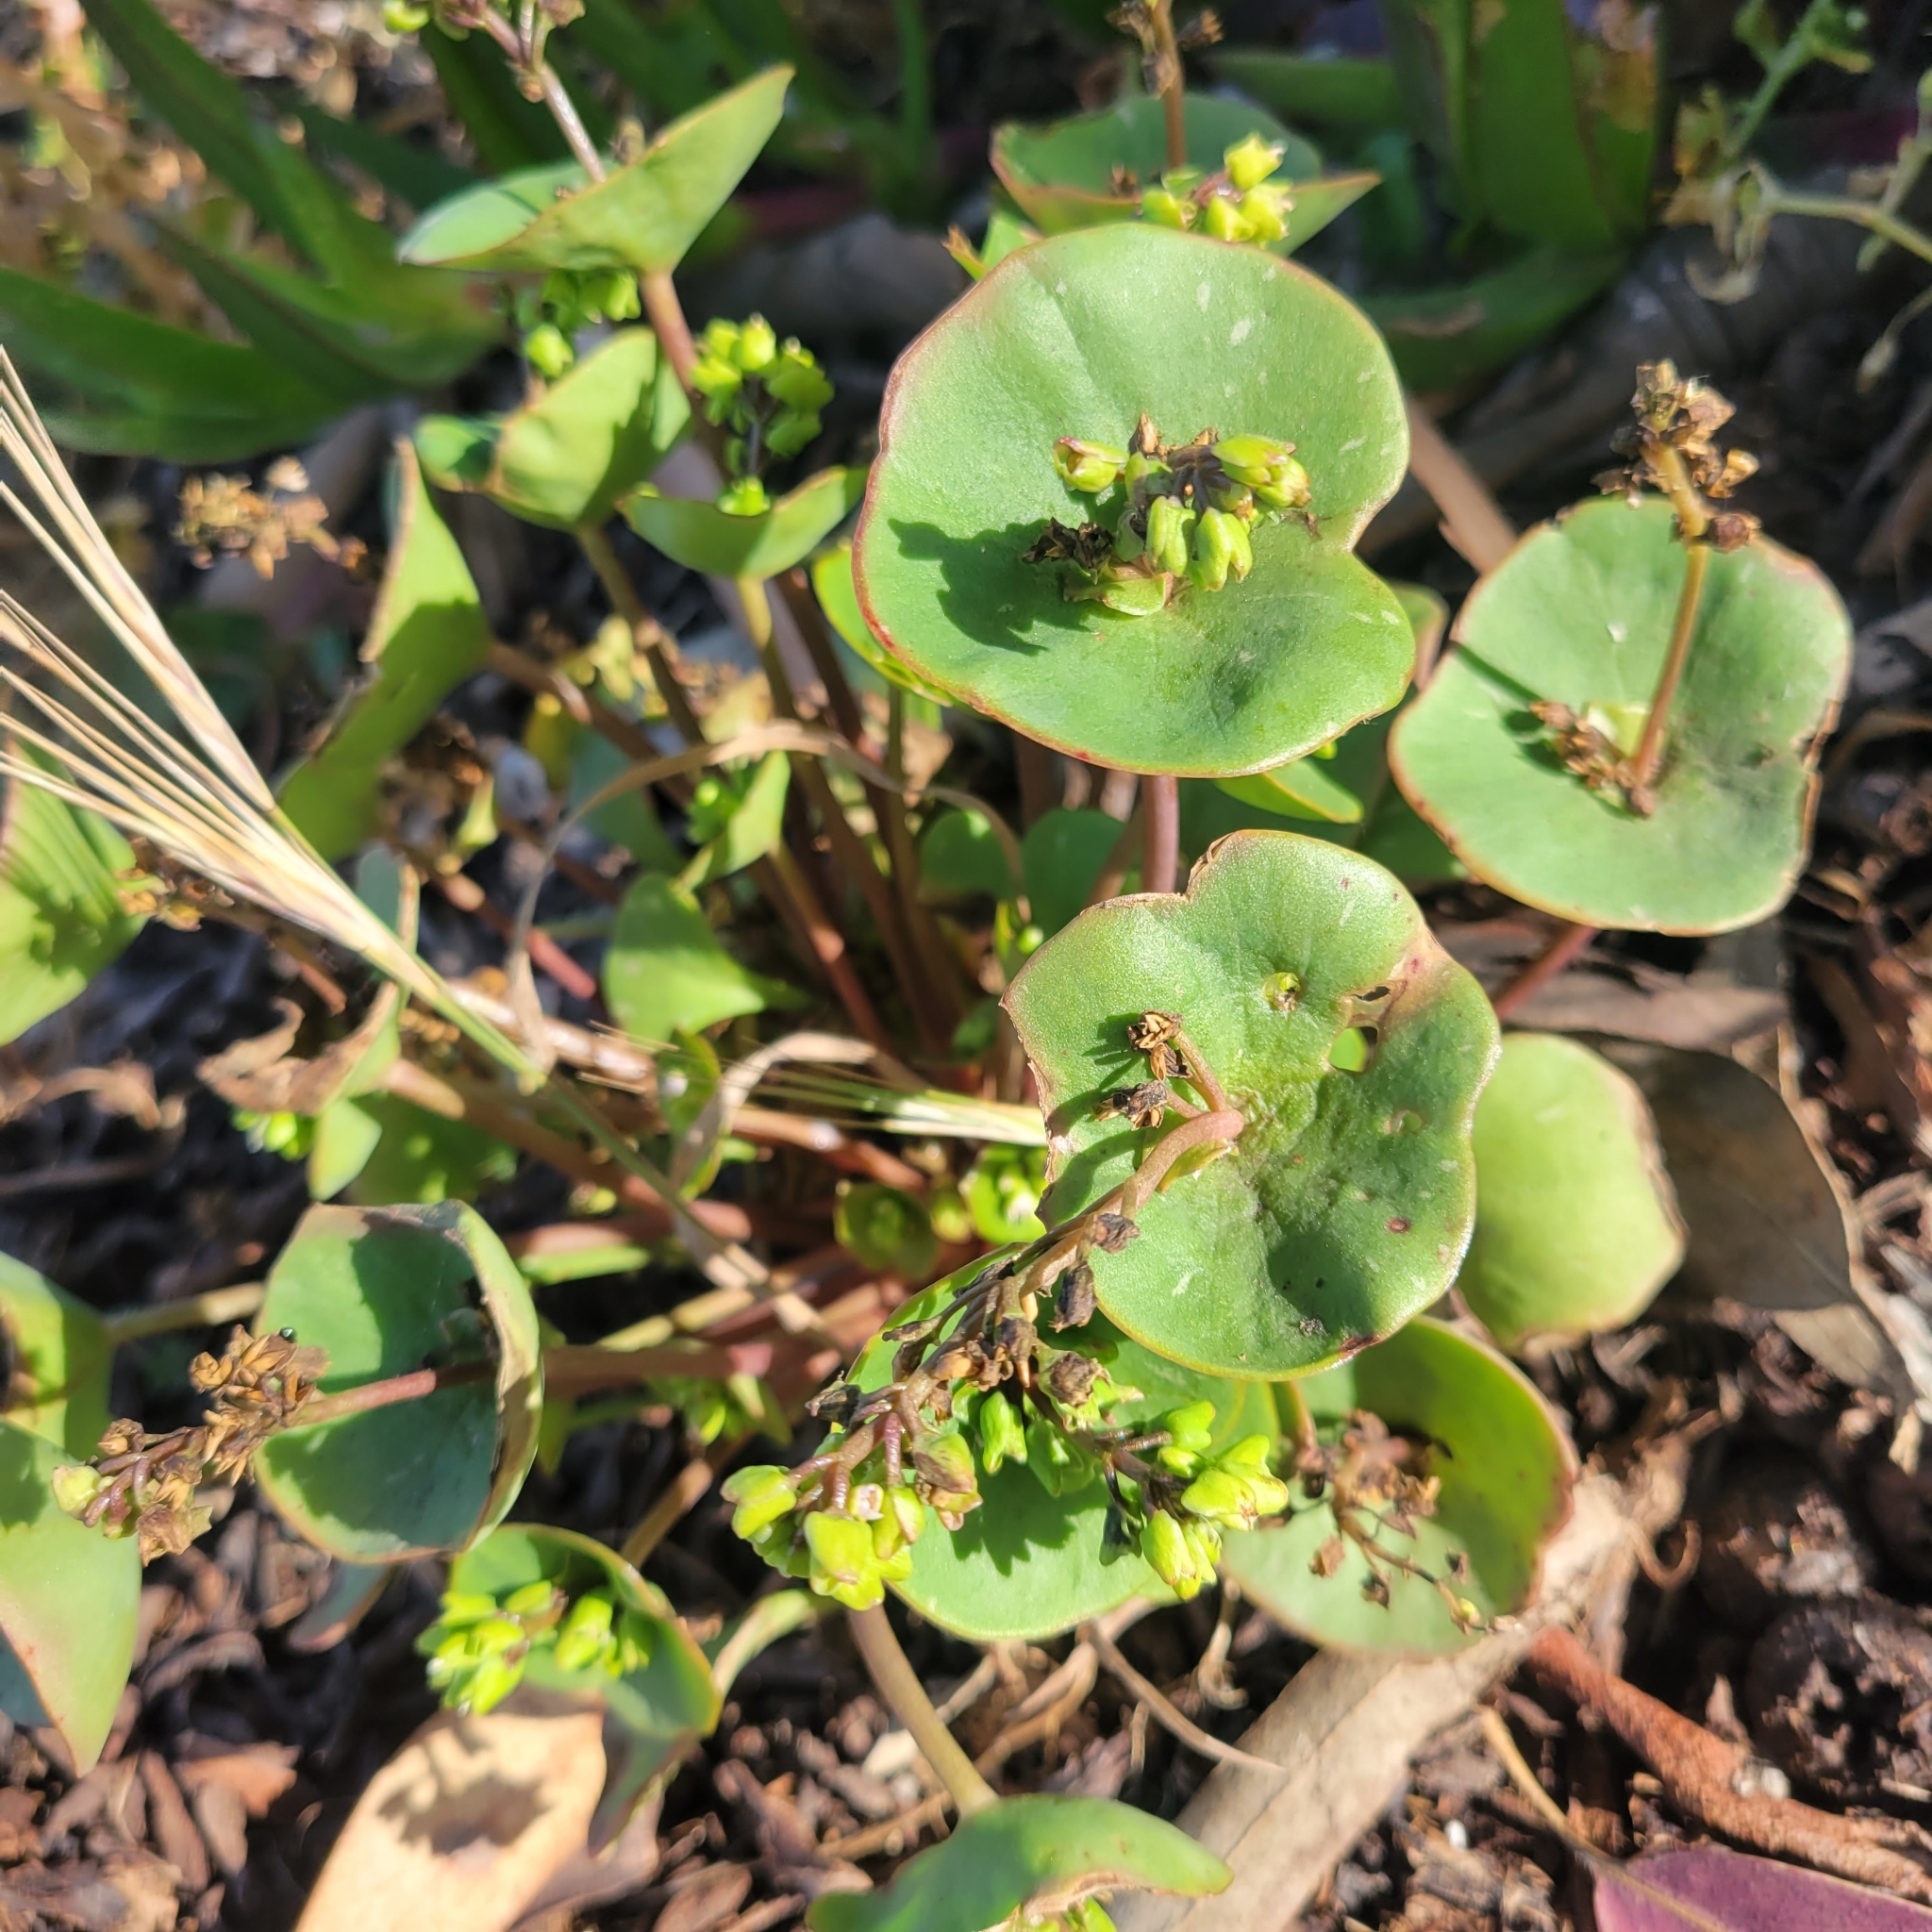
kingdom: Plantae
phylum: Tracheophyta
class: Magnoliopsida
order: Caryophyllales
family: Montiaceae
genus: Claytonia
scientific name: Claytonia perfoliata
